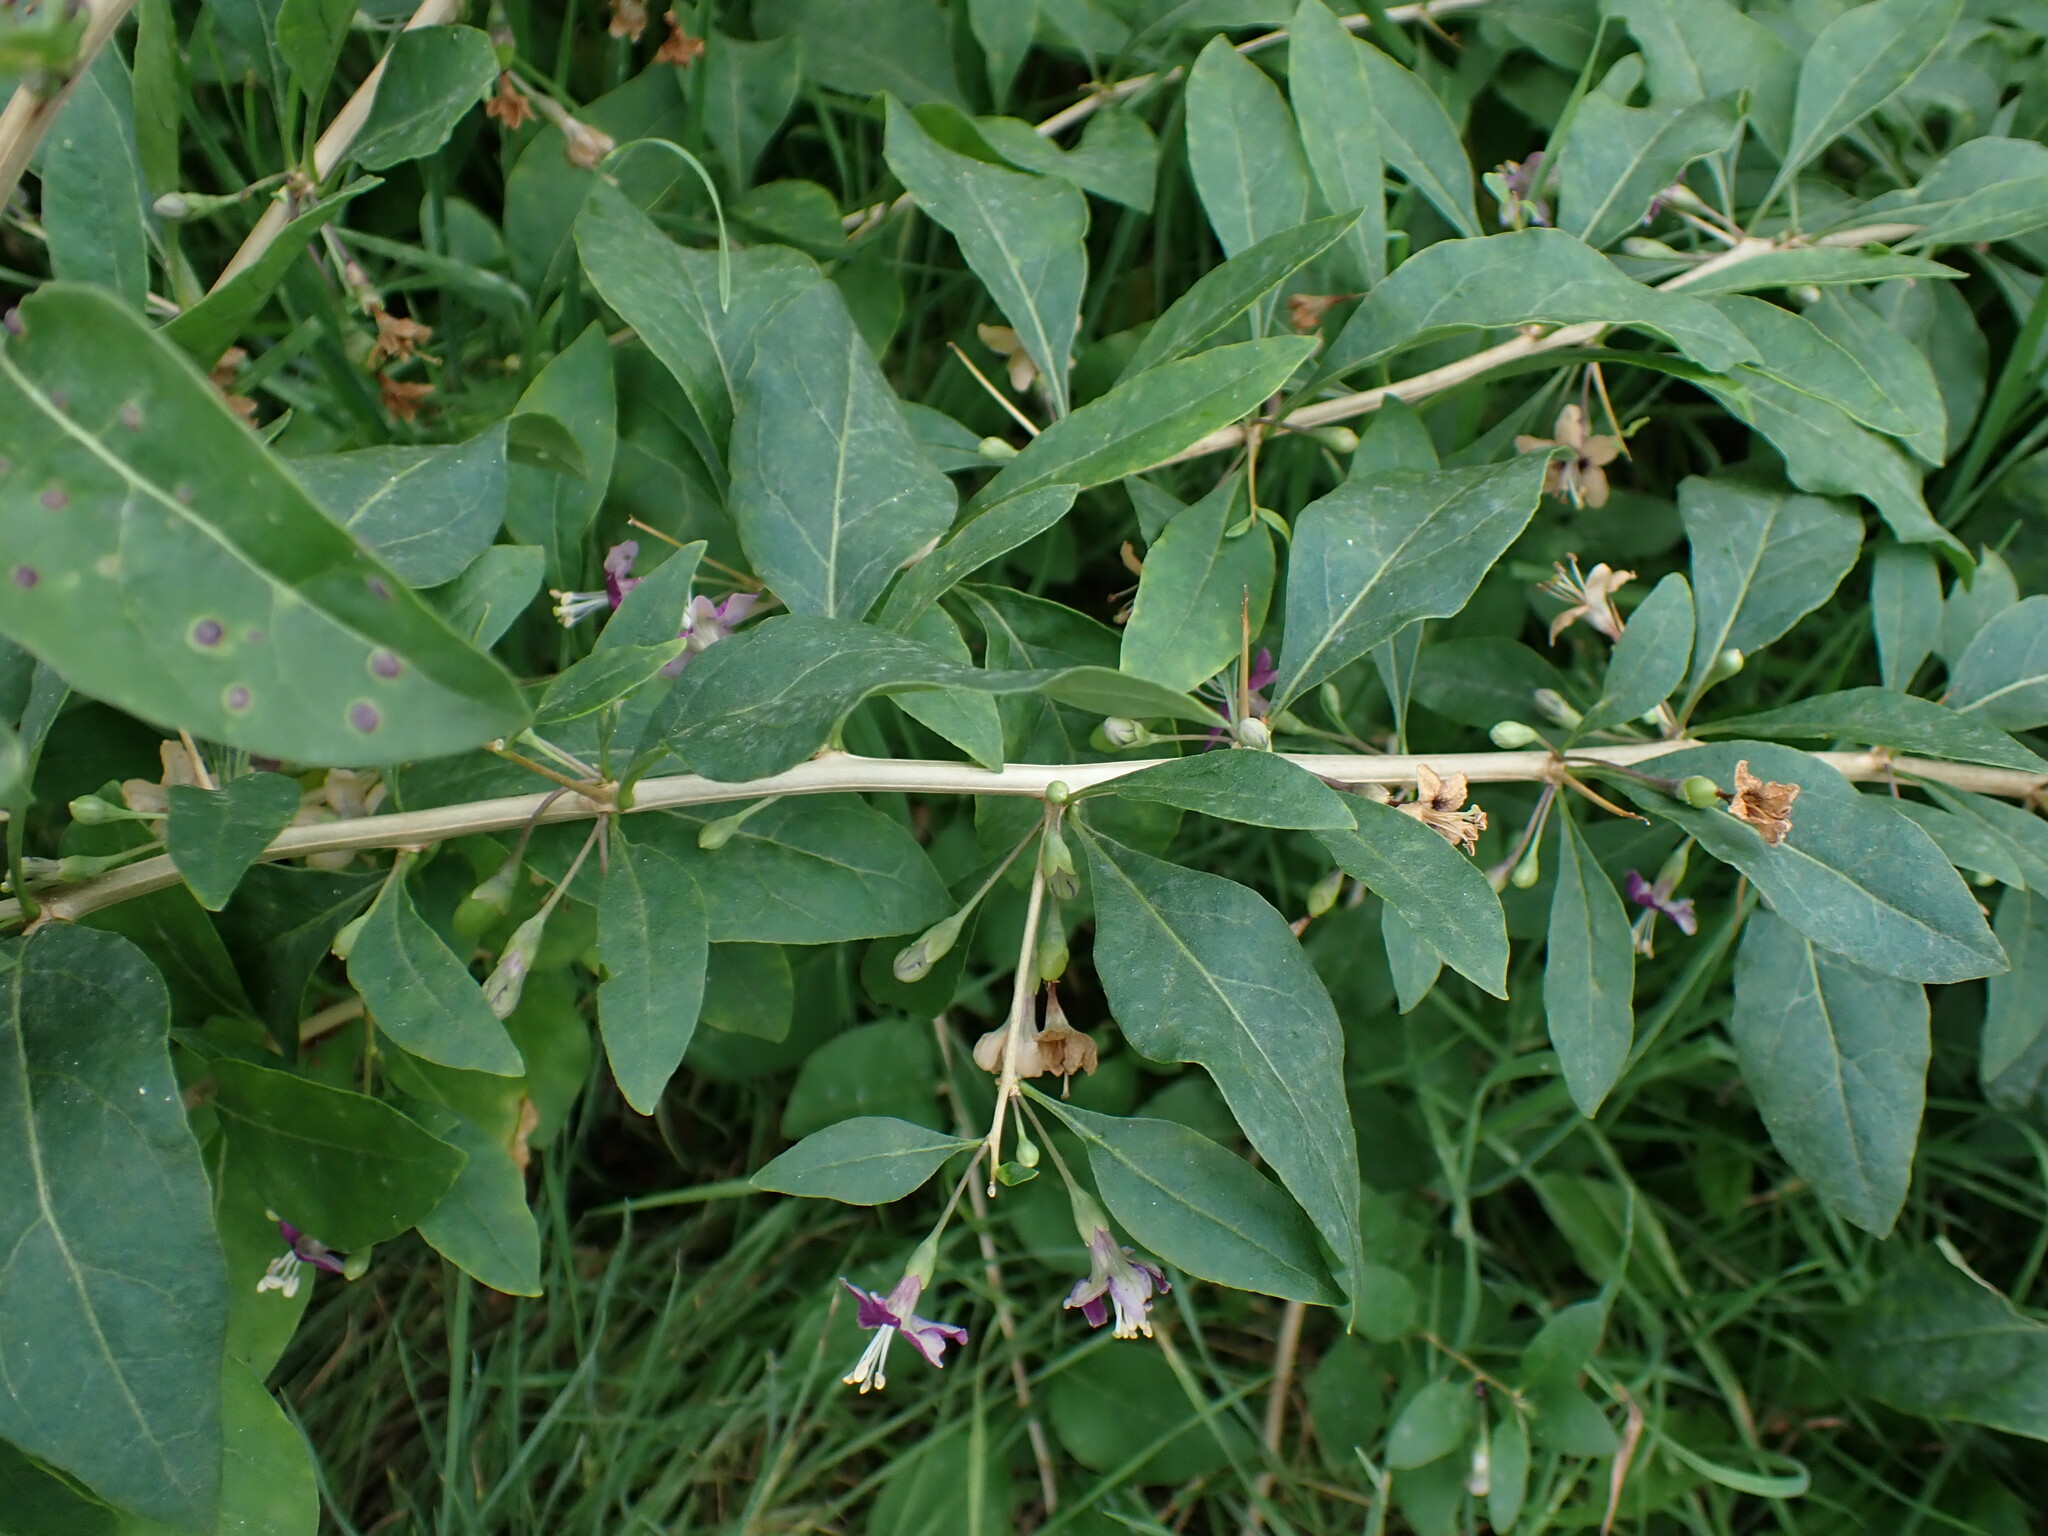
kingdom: Plantae
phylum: Tracheophyta
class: Magnoliopsida
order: Solanales
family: Solanaceae
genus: Lycium
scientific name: Lycium barbarum
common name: Duke of argyll's teaplant
